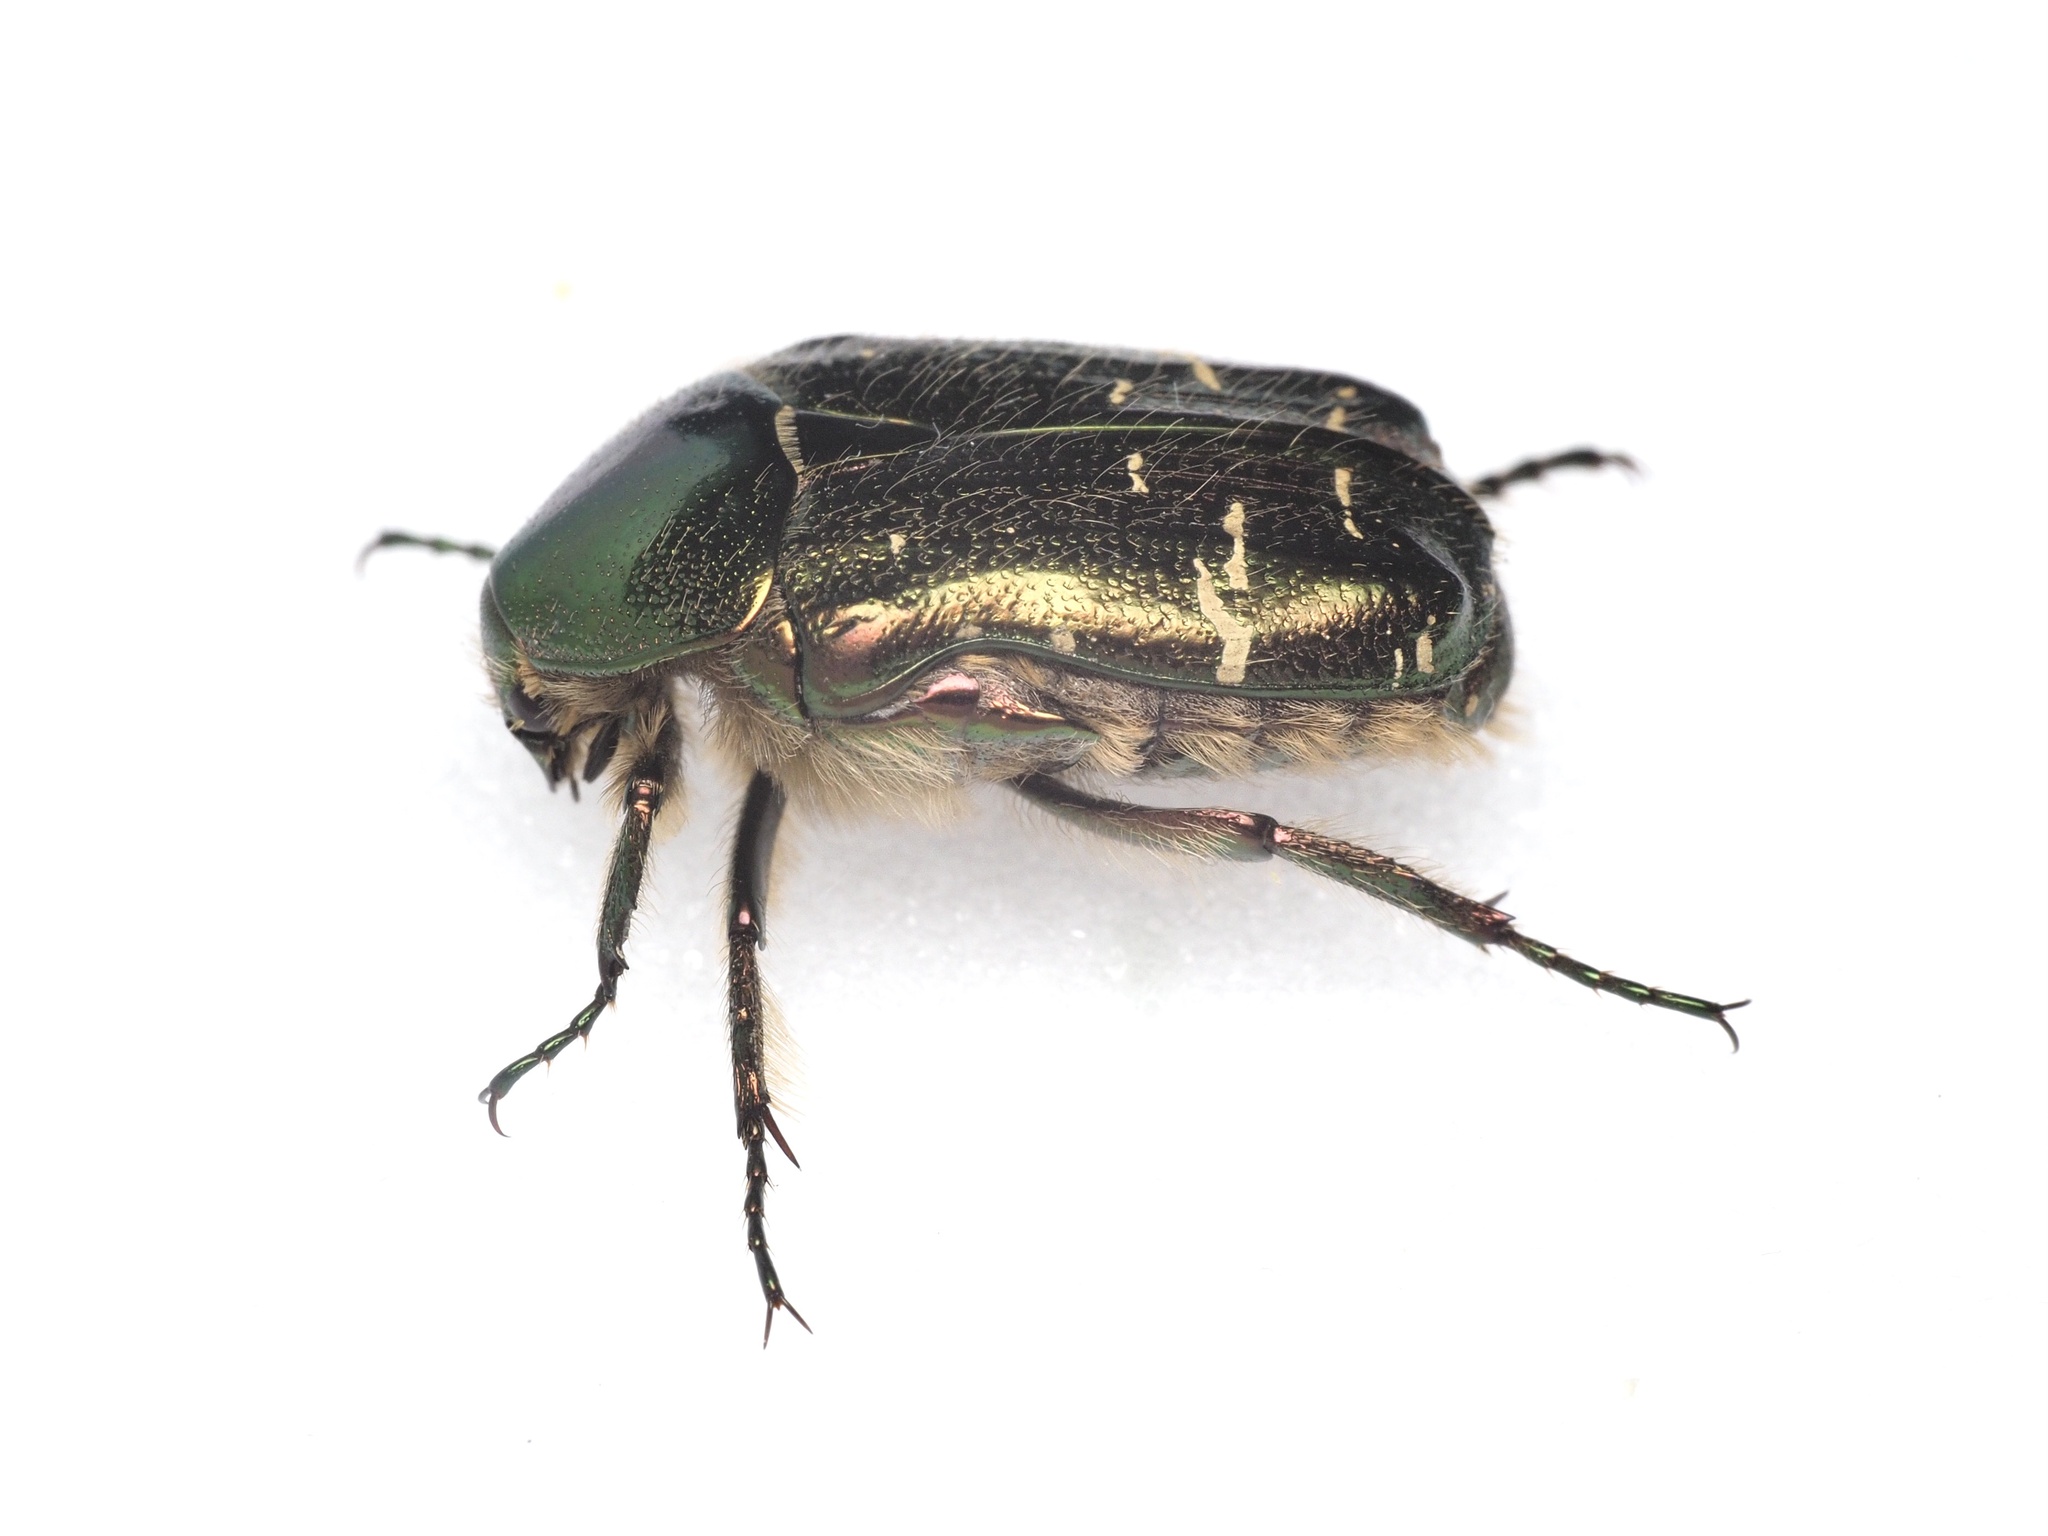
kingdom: Animalia
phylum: Arthropoda
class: Insecta
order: Coleoptera
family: Scarabaeidae
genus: Cetonia
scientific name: Cetonia aurata
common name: Rose chafer
